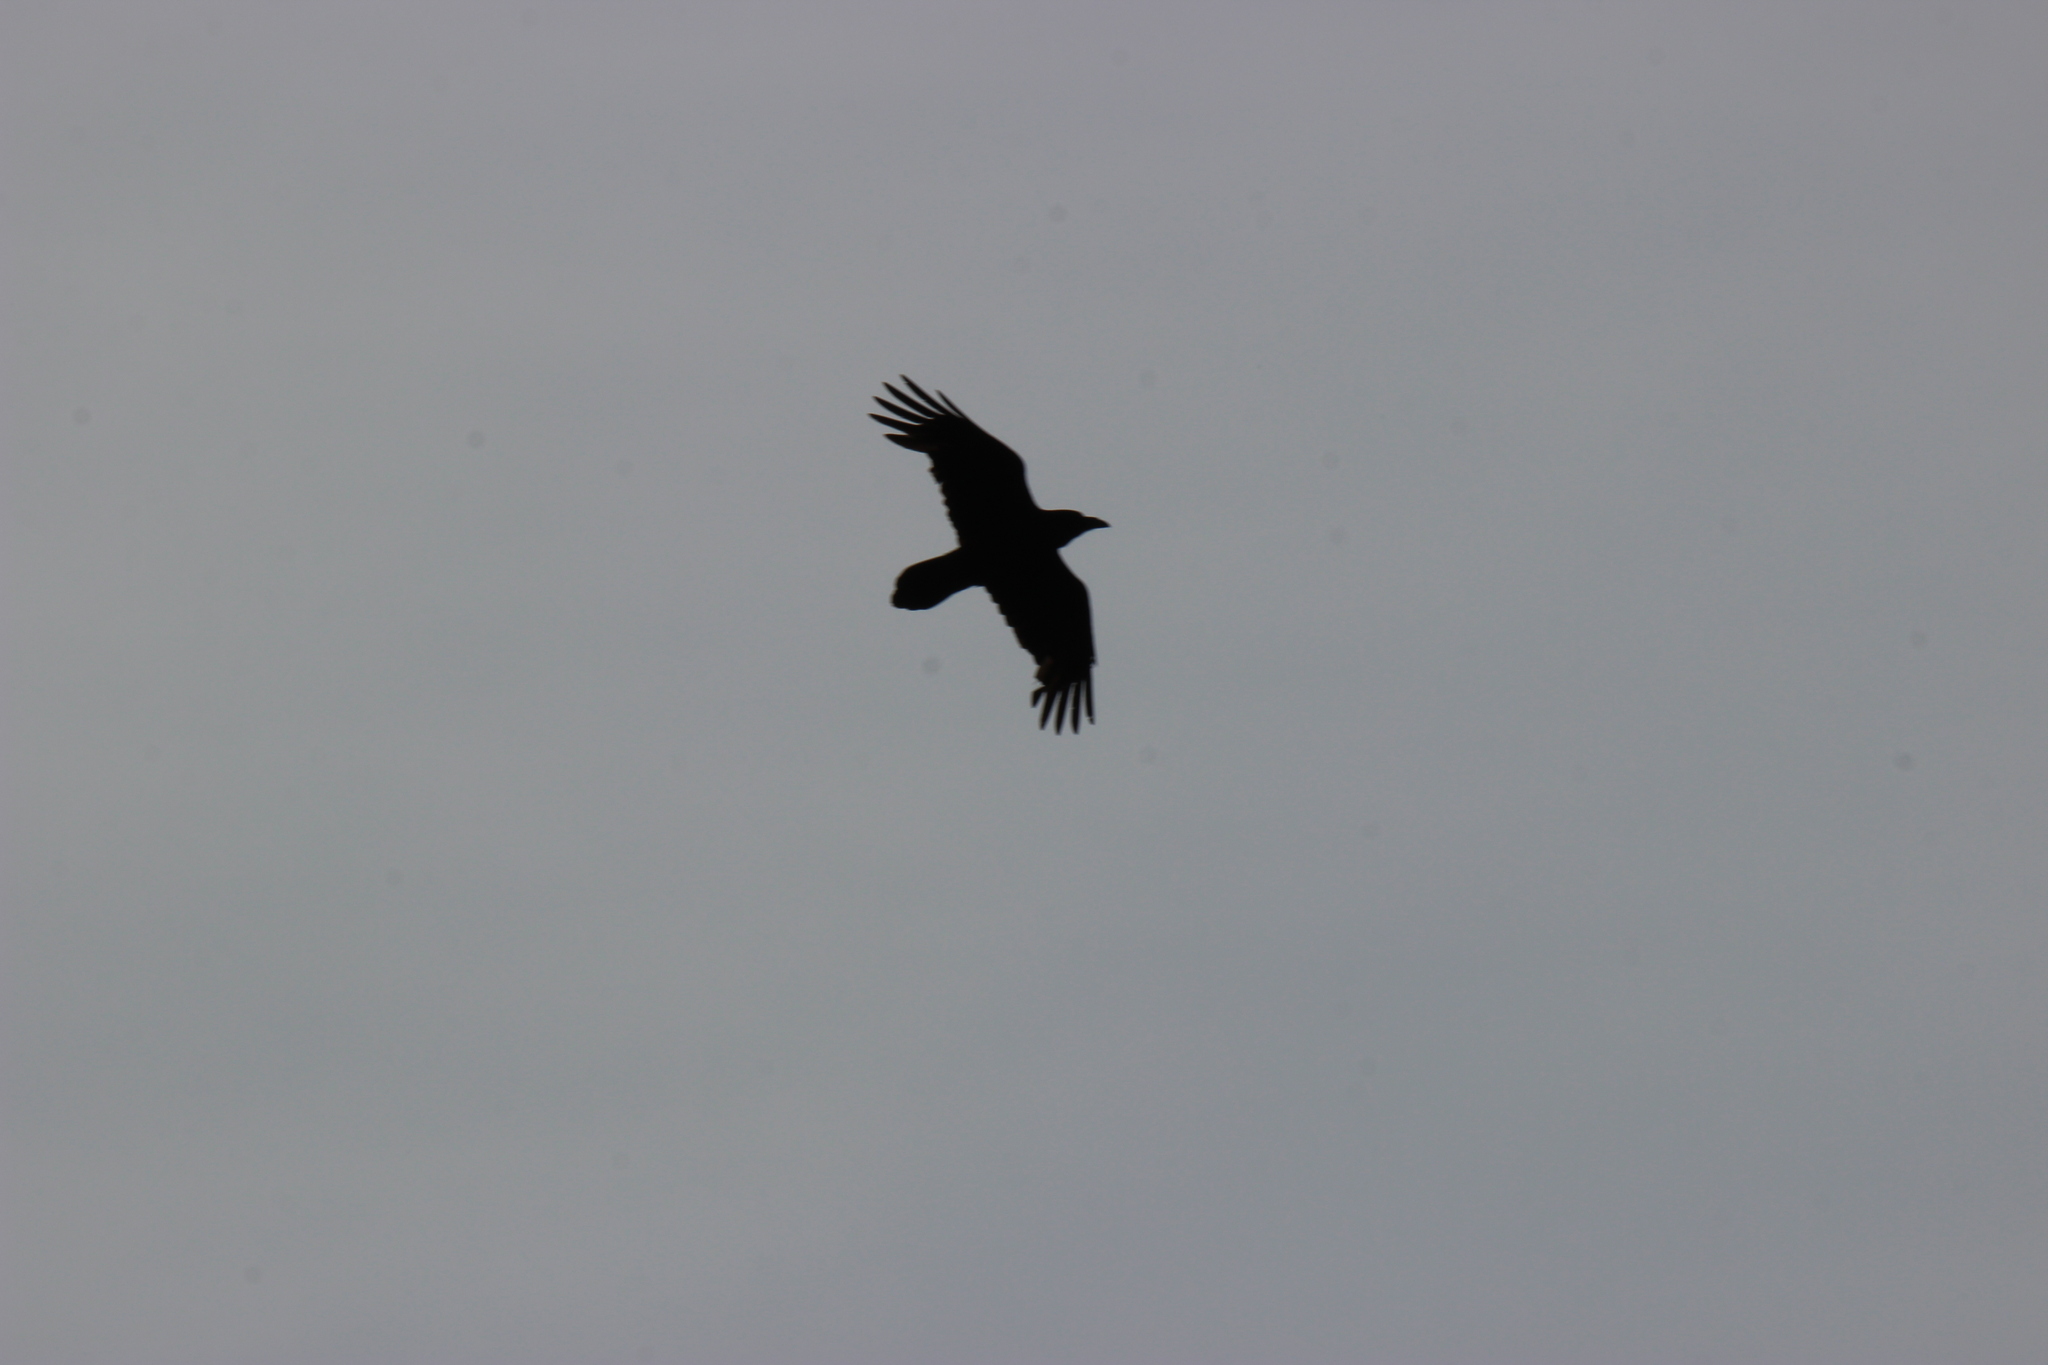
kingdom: Animalia
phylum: Chordata
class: Aves
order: Passeriformes
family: Corvidae
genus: Corvus
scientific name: Corvus corax
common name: Common raven
